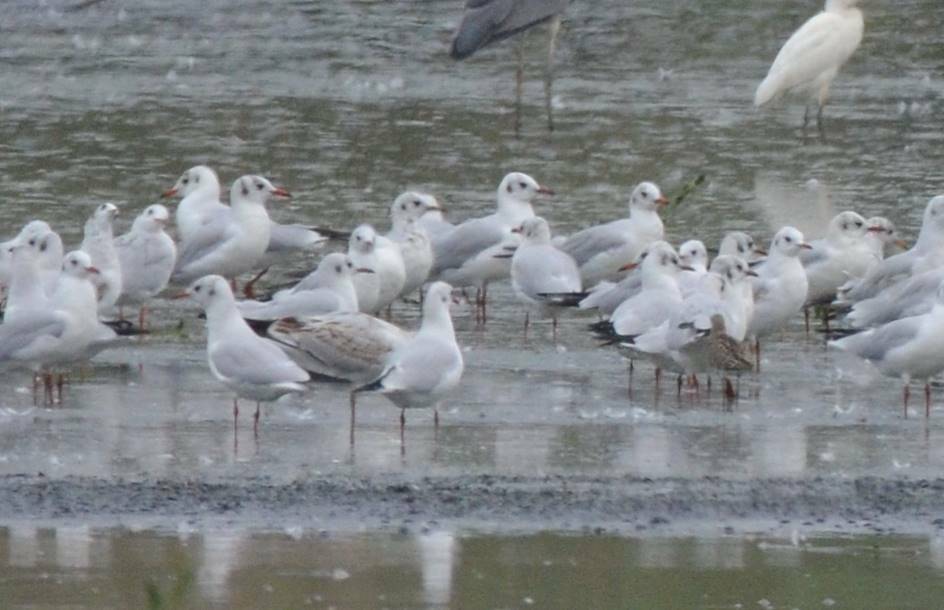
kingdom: Animalia
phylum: Chordata
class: Aves
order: Charadriiformes
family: Laridae
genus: Chroicocephalus
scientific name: Chroicocephalus ridibundus
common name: Black-headed gull
